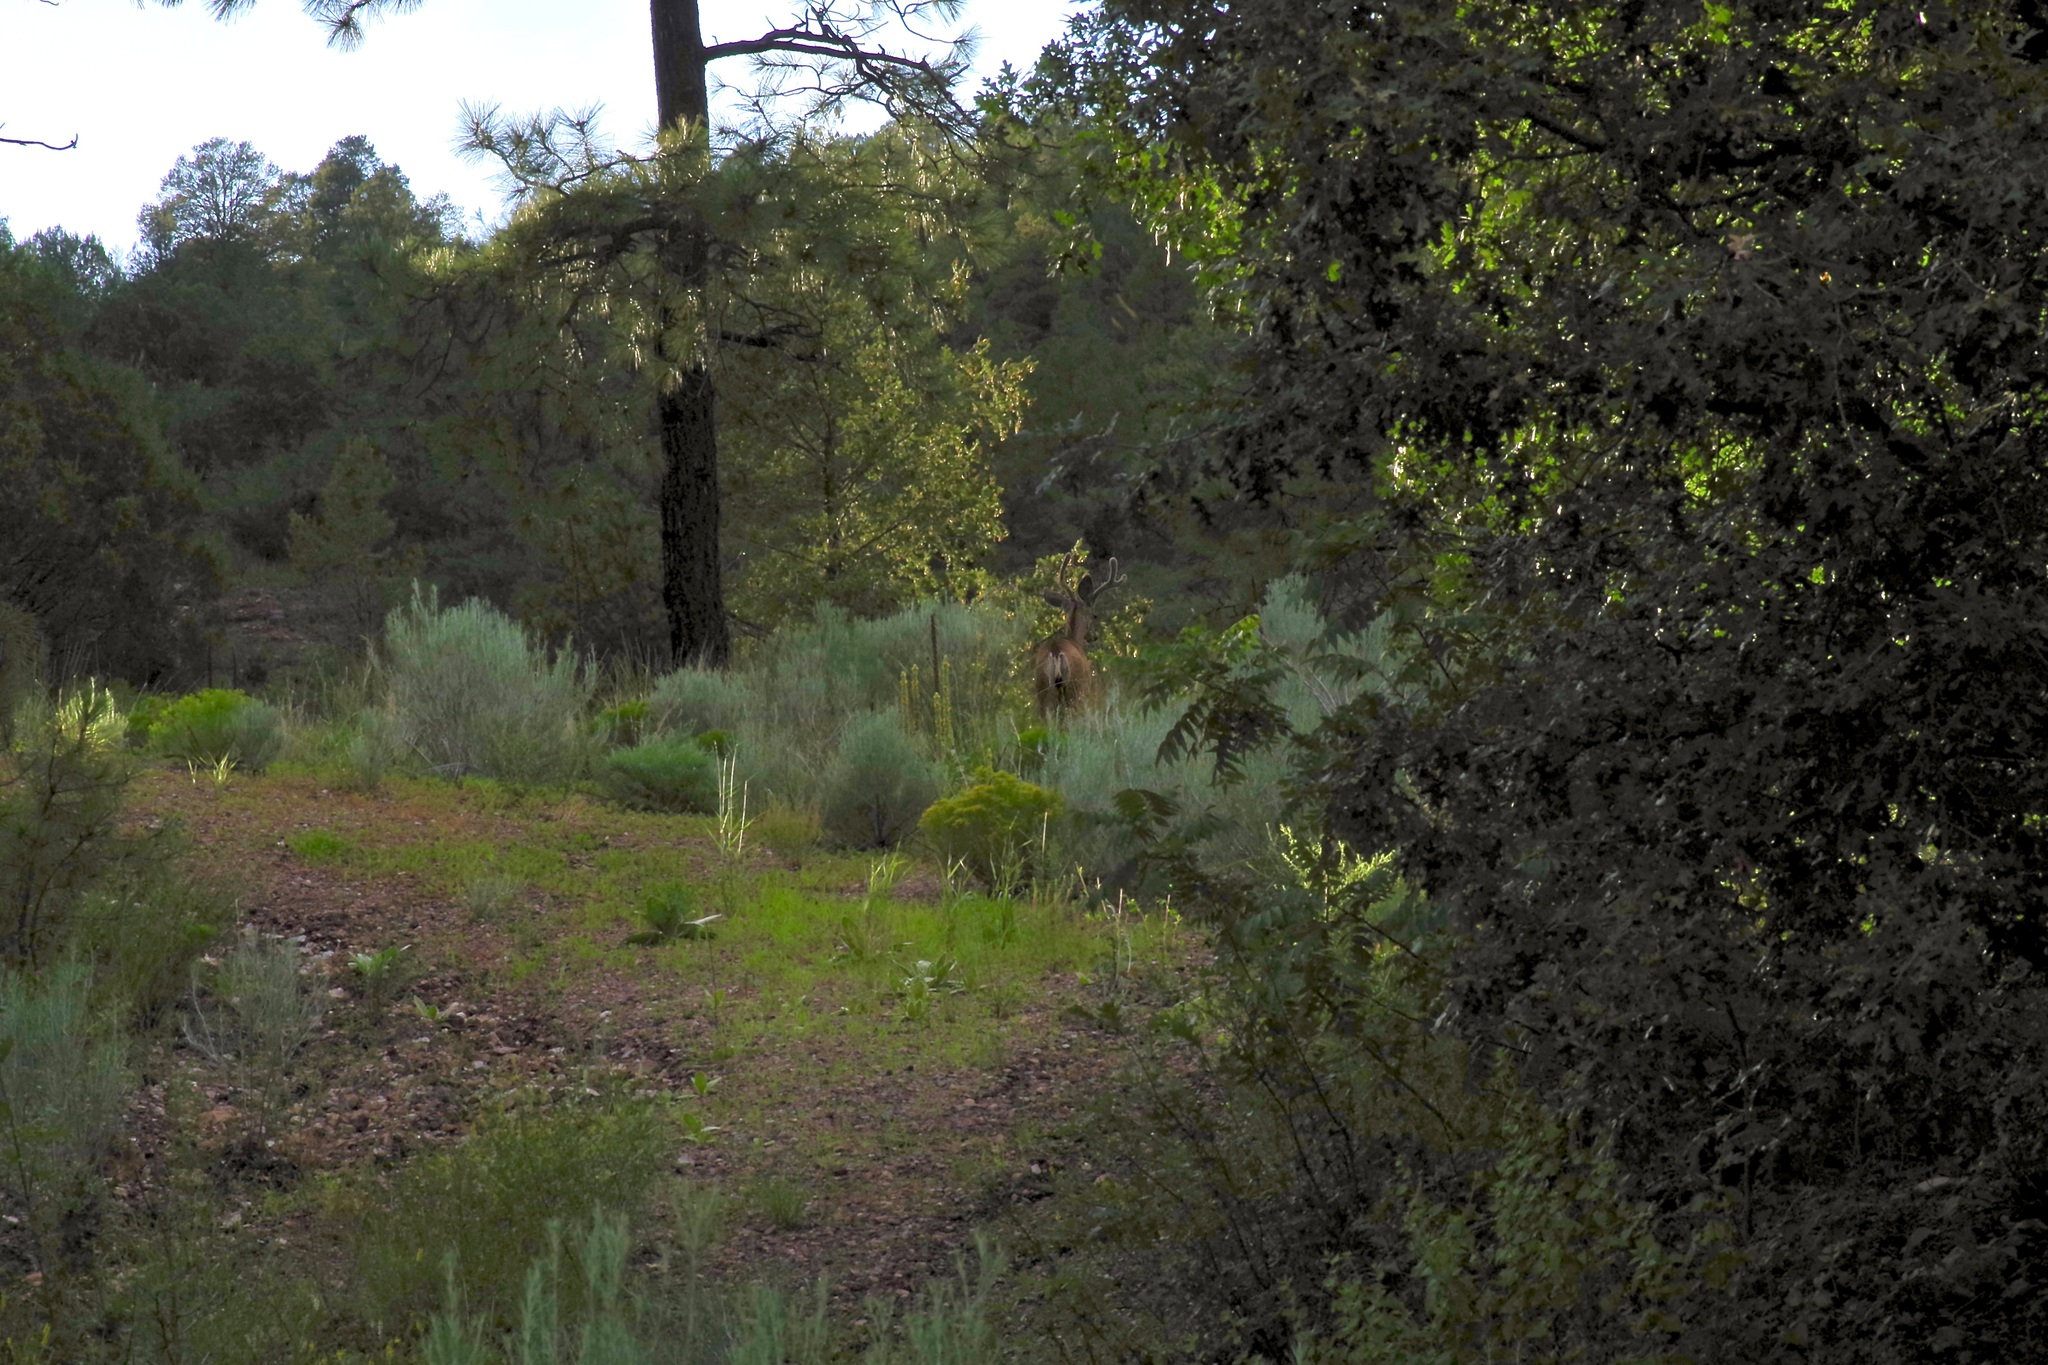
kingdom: Animalia
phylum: Chordata
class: Mammalia
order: Artiodactyla
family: Cervidae
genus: Odocoileus
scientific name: Odocoileus hemionus
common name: Mule deer
